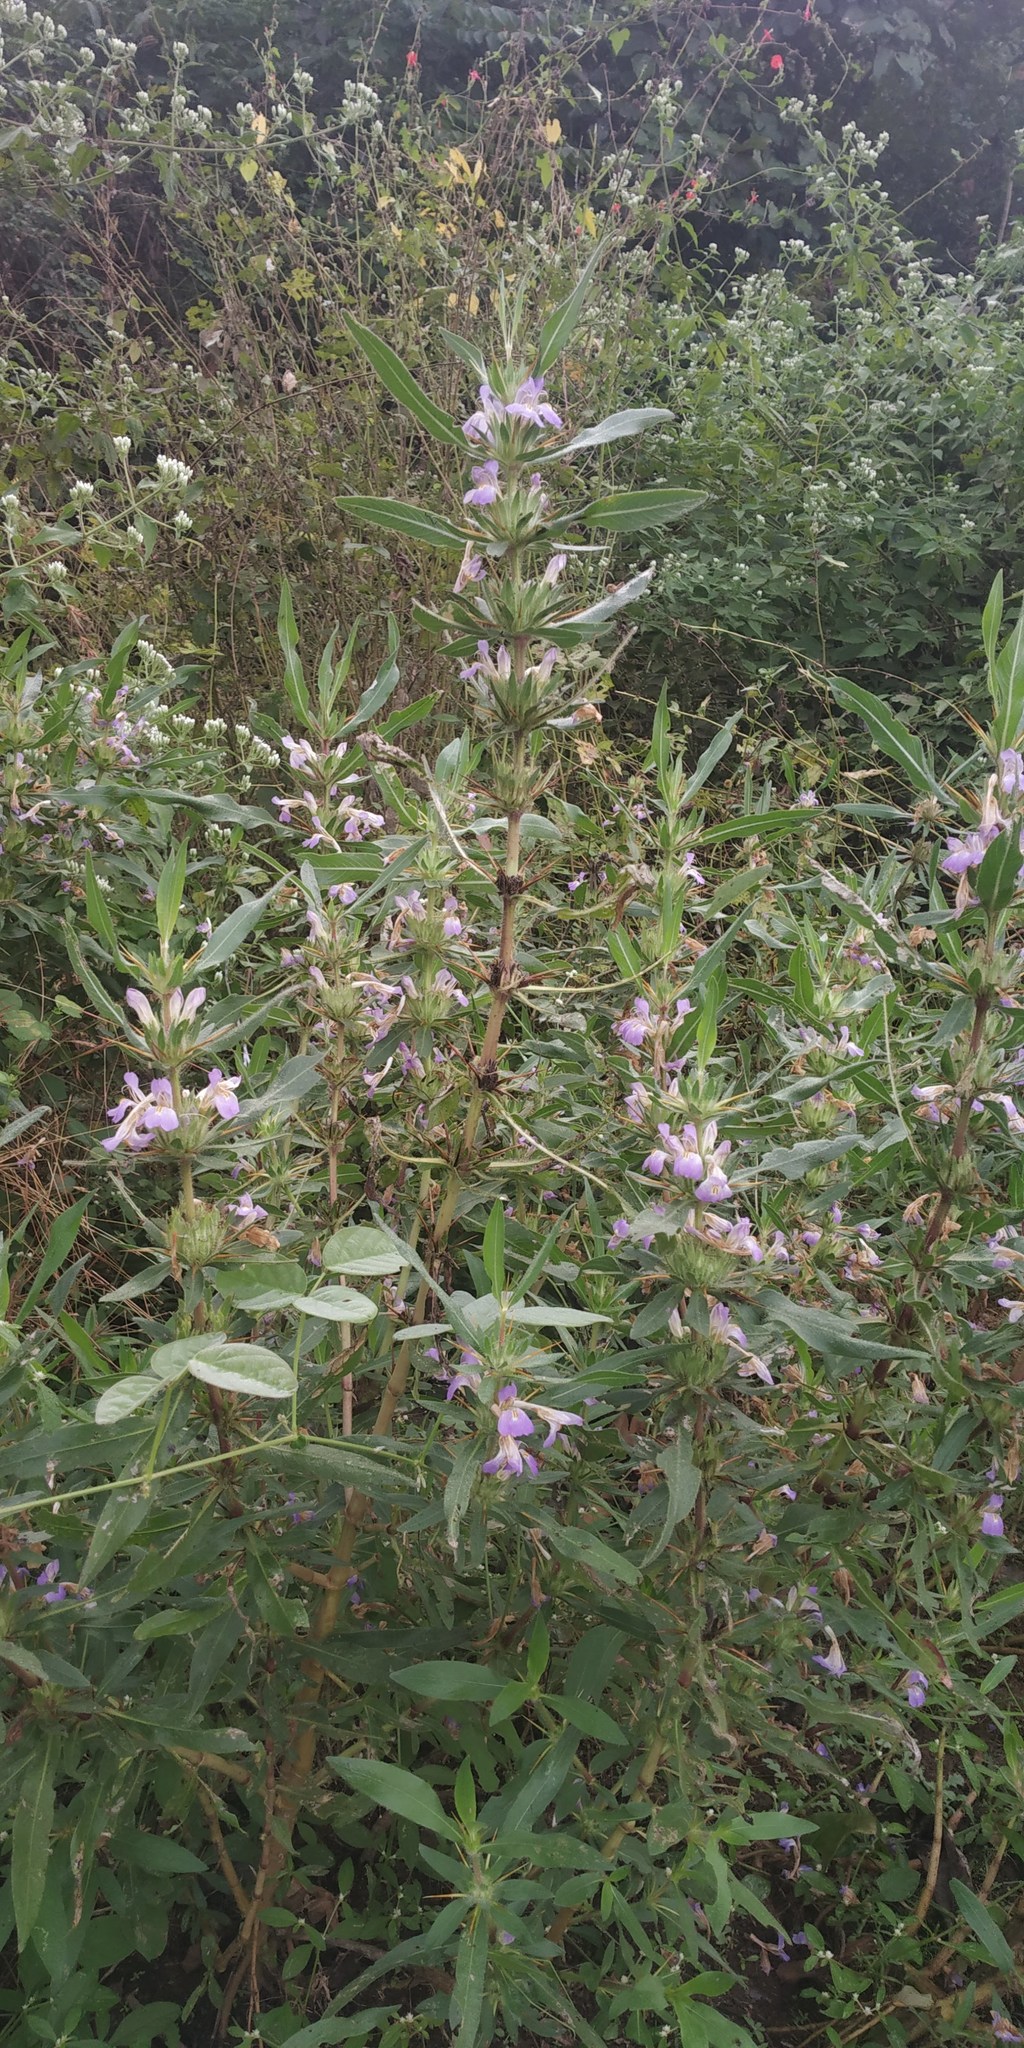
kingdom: Plantae
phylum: Tracheophyta
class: Magnoliopsida
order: Lamiales
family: Acanthaceae
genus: Hygrophila
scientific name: Hygrophila auriculata
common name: Hygrophila
